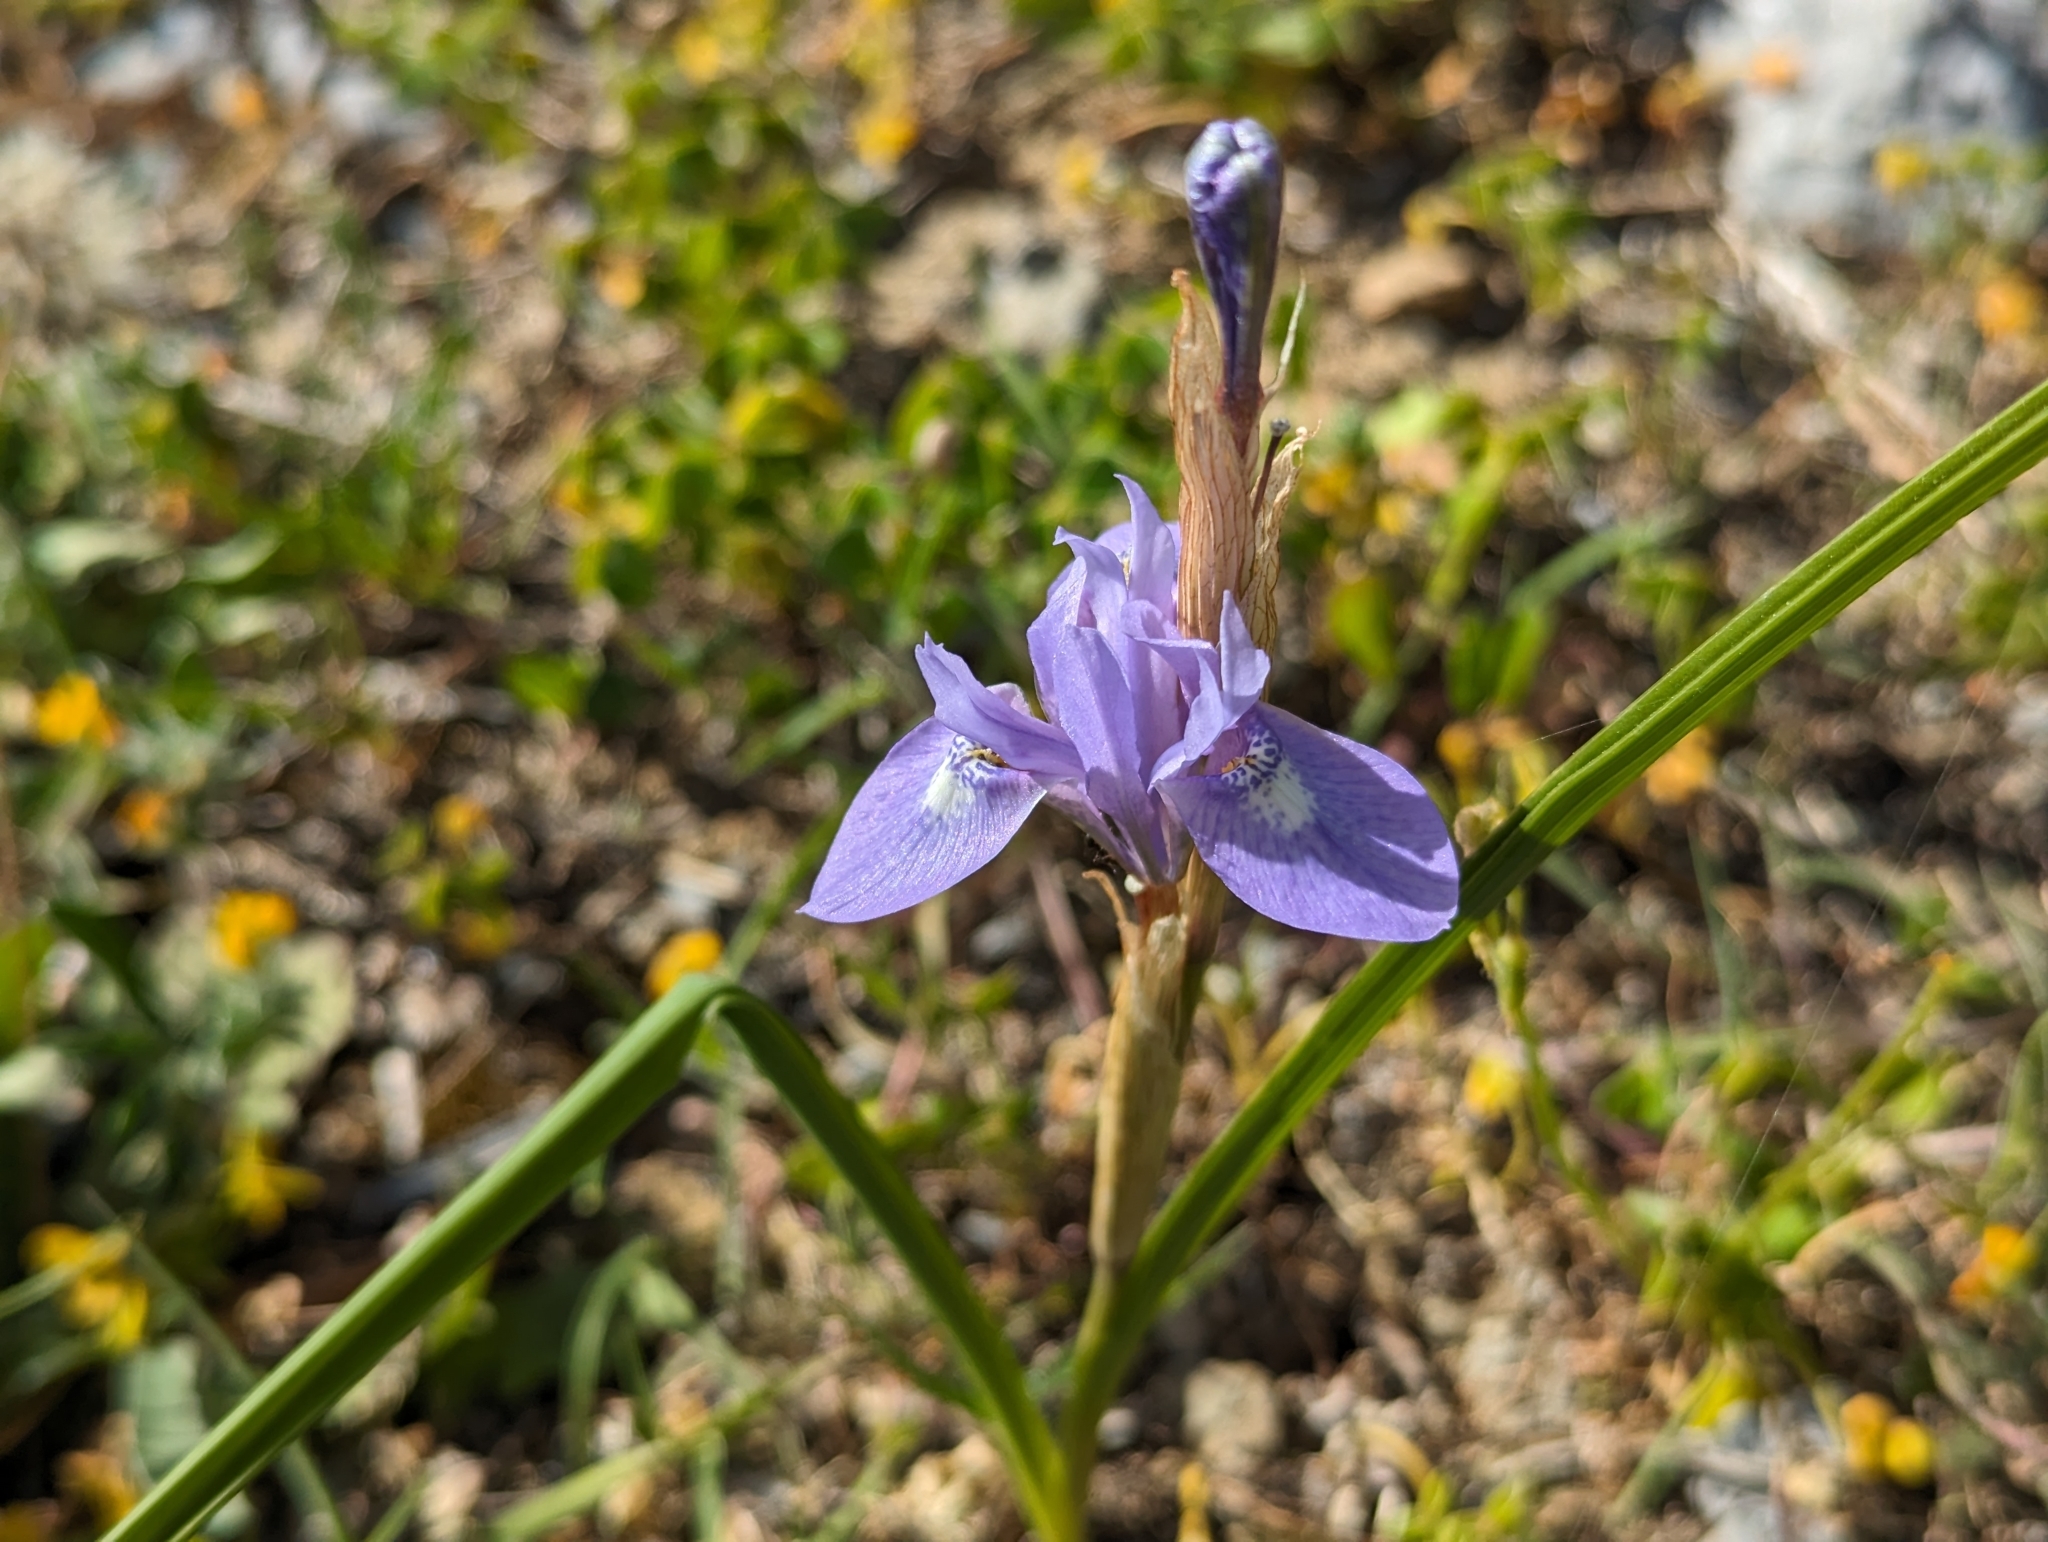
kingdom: Plantae
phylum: Tracheophyta
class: Liliopsida
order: Asparagales
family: Iridaceae
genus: Moraea
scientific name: Moraea sisyrinchium
